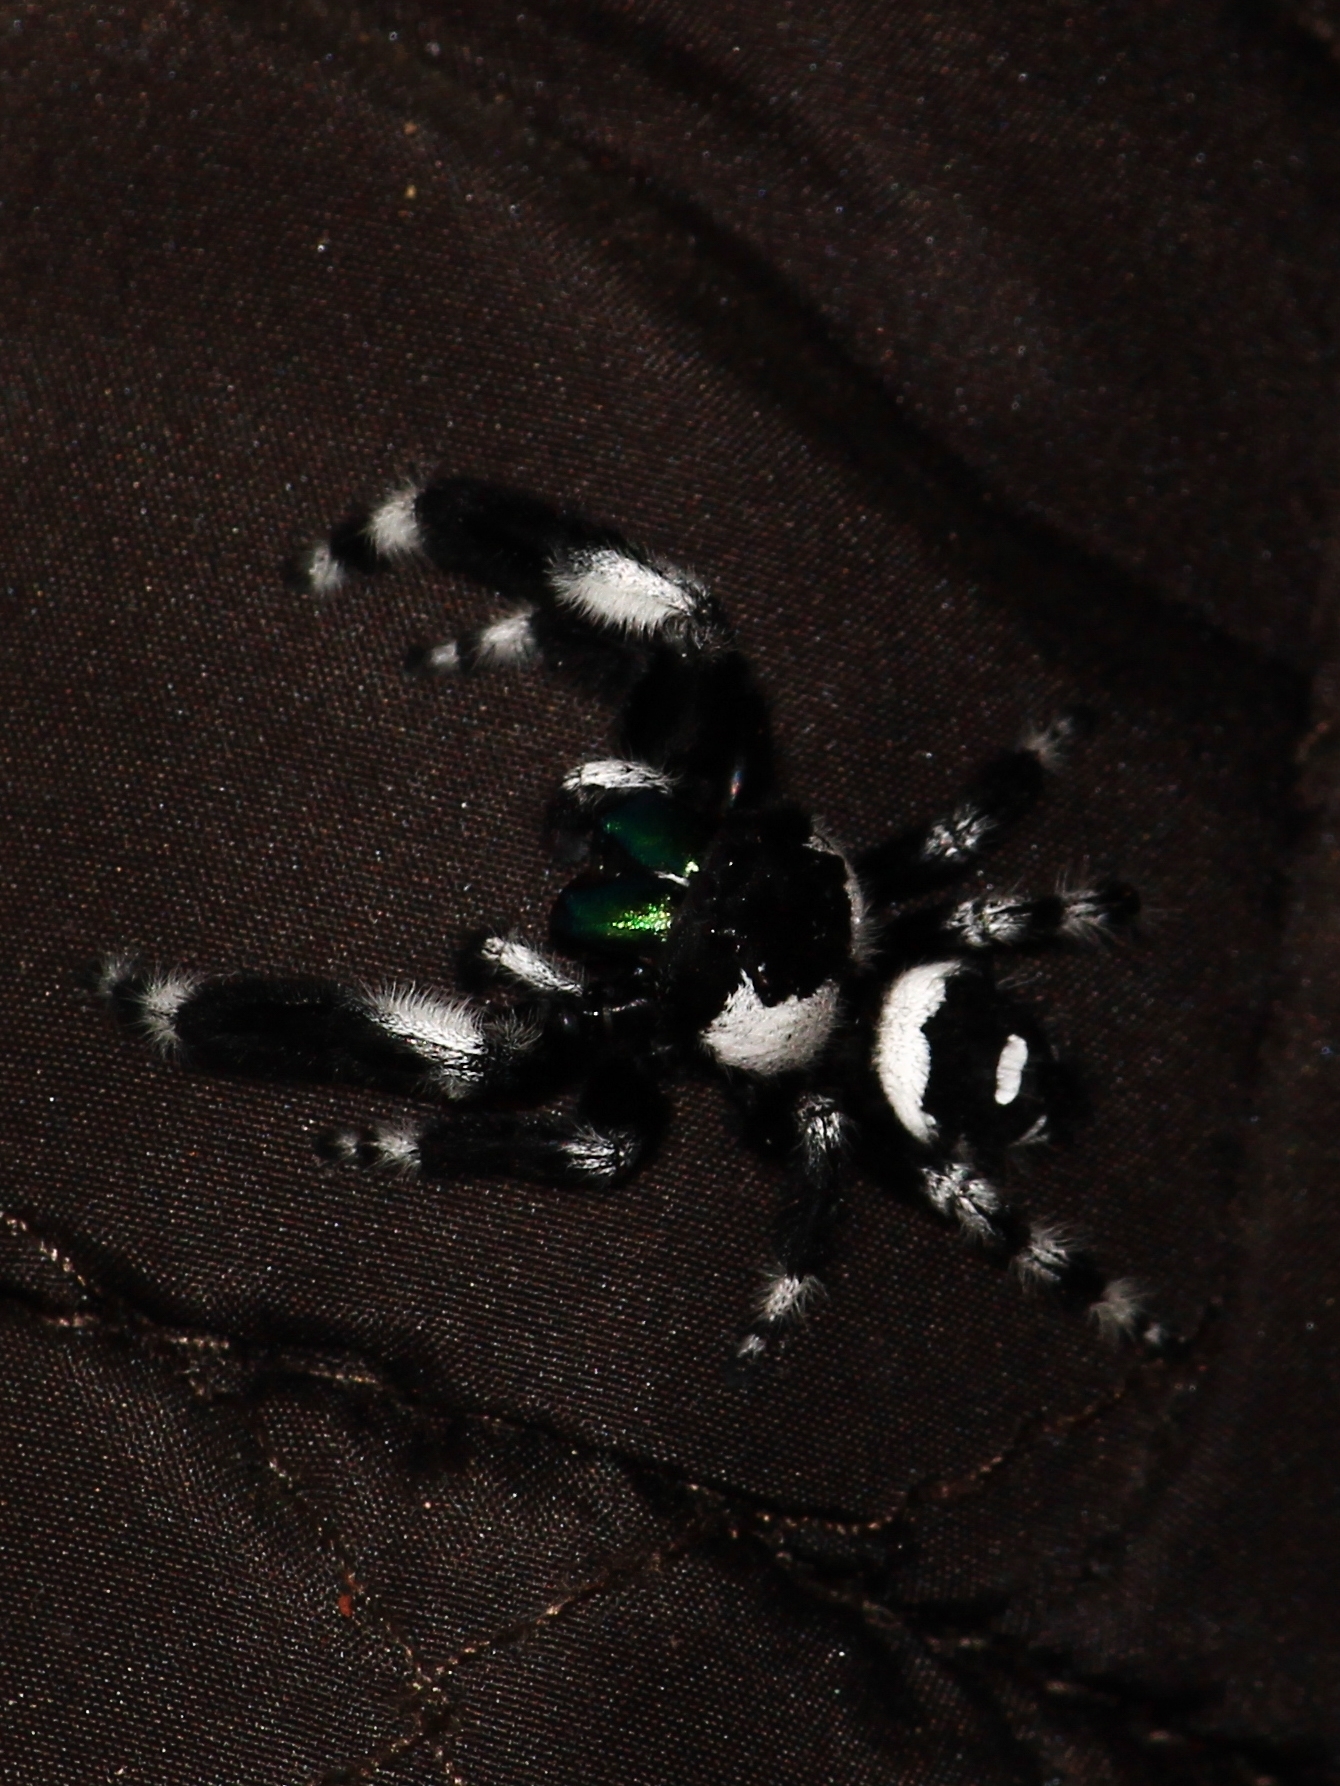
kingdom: Animalia
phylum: Arthropoda
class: Arachnida
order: Araneae
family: Salticidae
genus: Phidippus
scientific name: Phidippus audax
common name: Bold jumper
